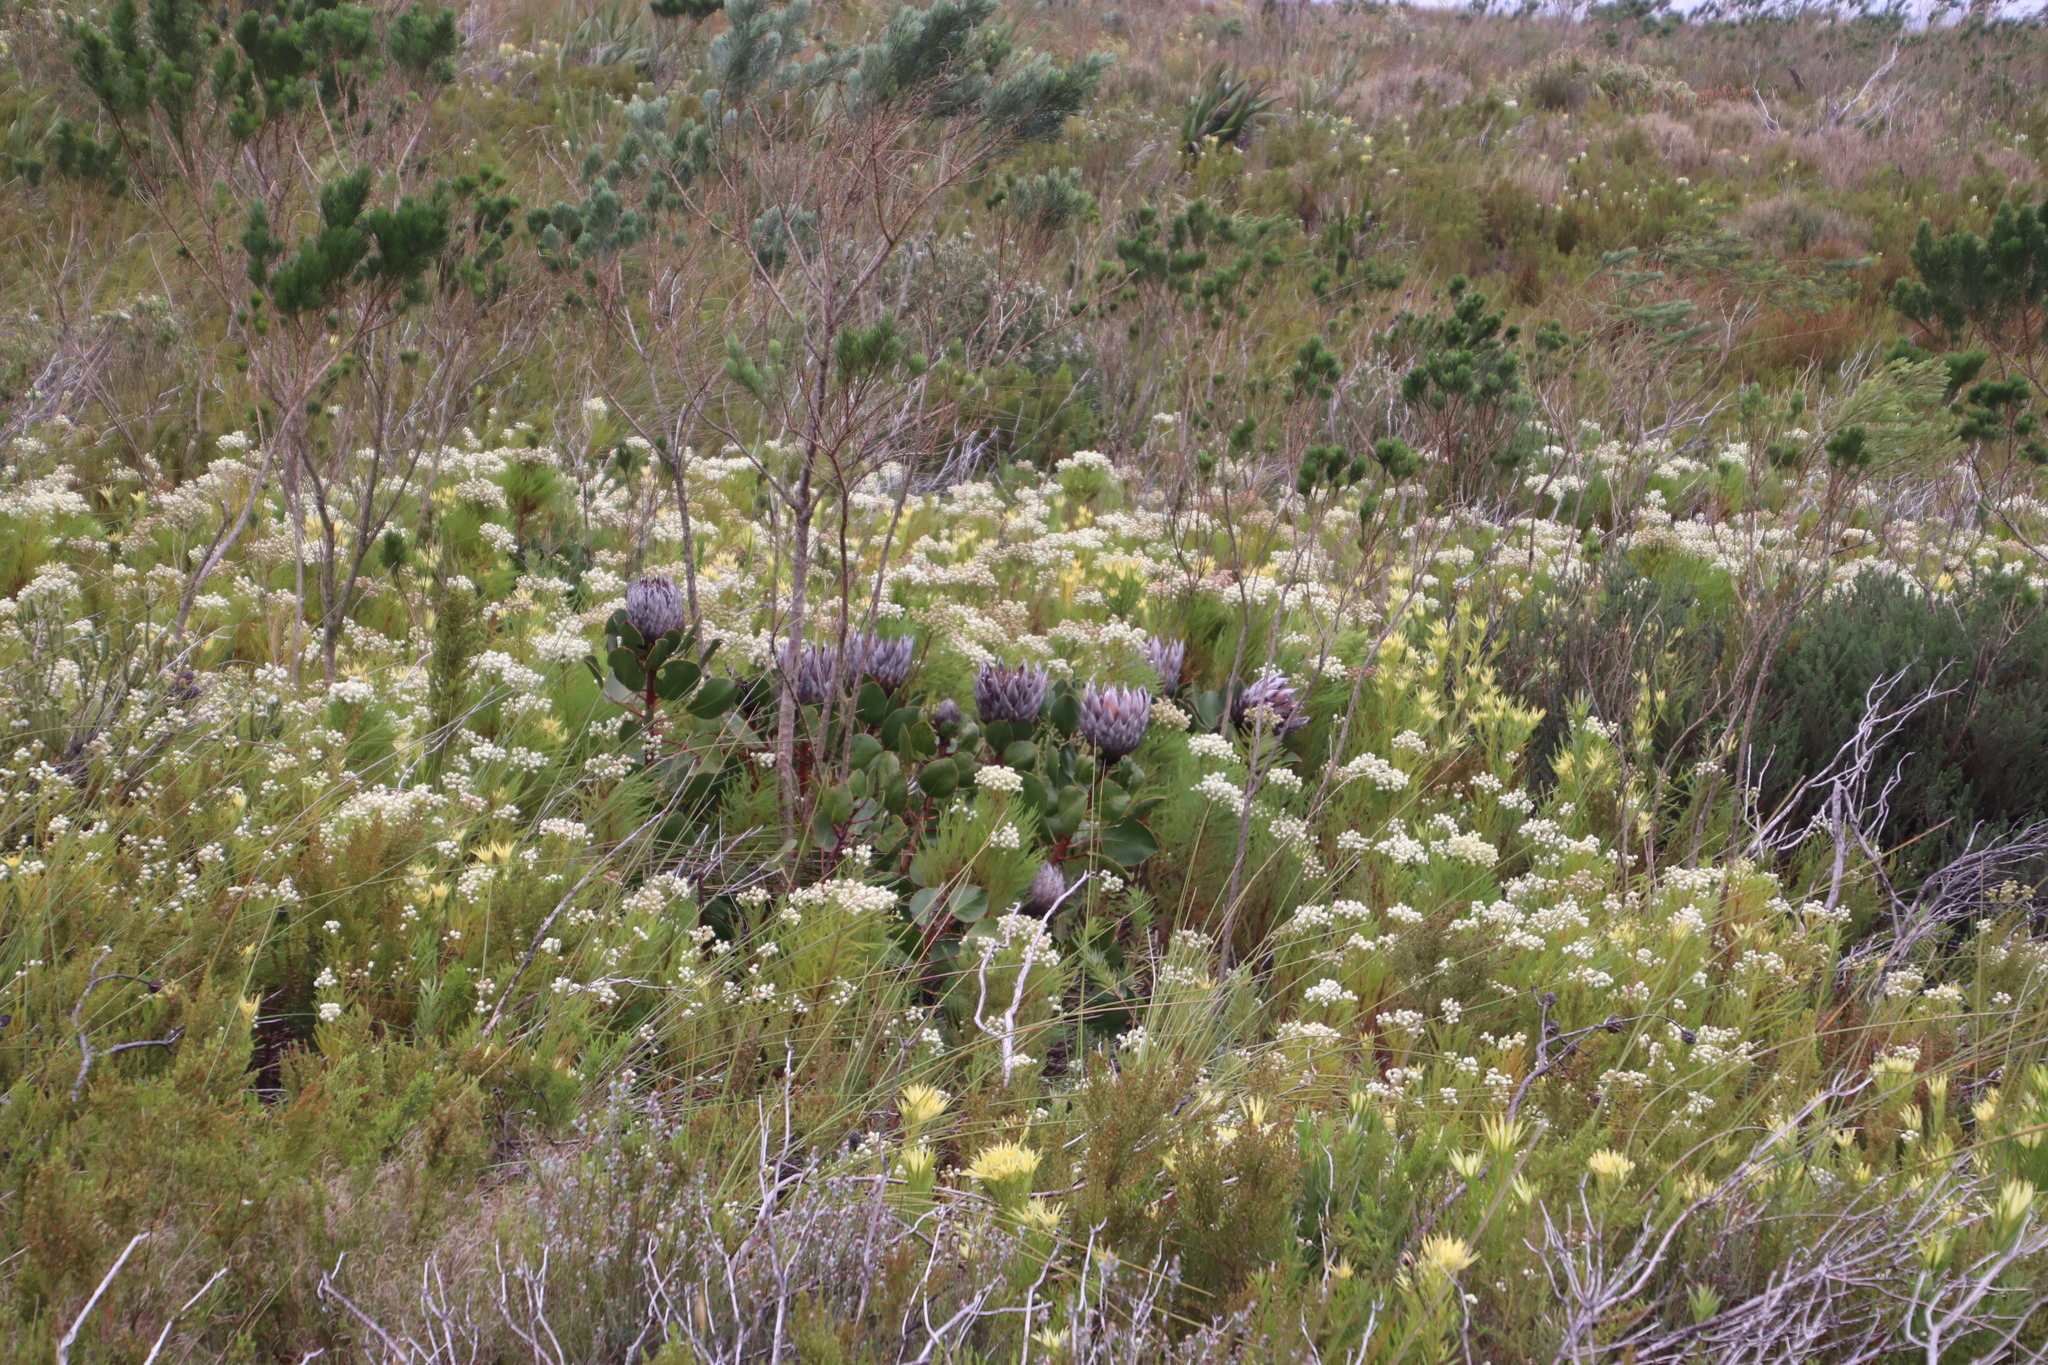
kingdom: Plantae
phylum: Tracheophyta
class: Magnoliopsida
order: Proteales
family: Proteaceae
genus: Protea
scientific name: Protea cynaroides
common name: King protea
